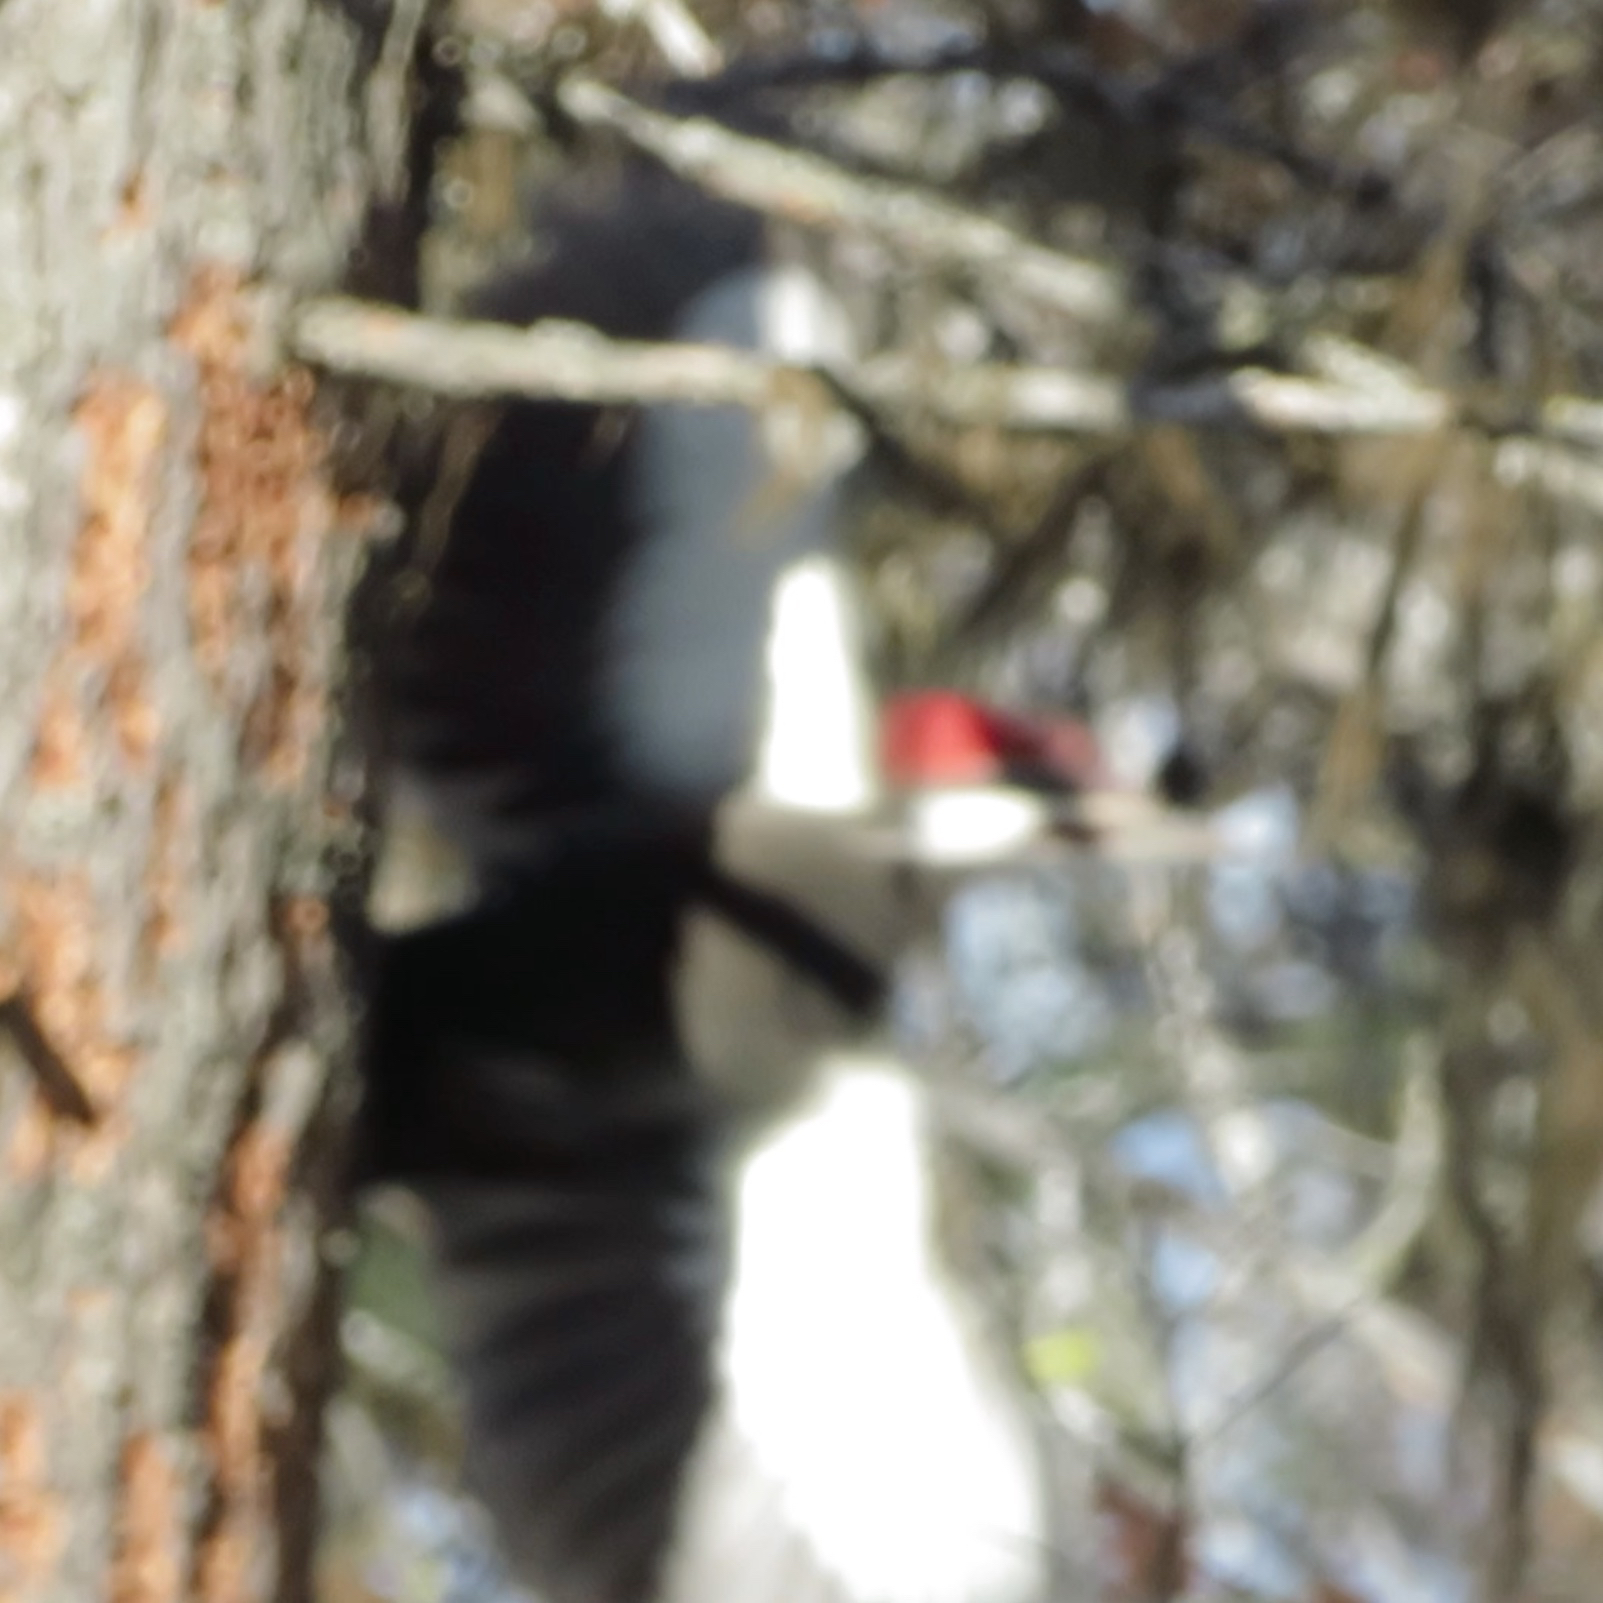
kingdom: Animalia
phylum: Chordata
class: Aves
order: Piciformes
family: Picidae
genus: Dryocopus
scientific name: Dryocopus pileatus
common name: Pileated woodpecker
